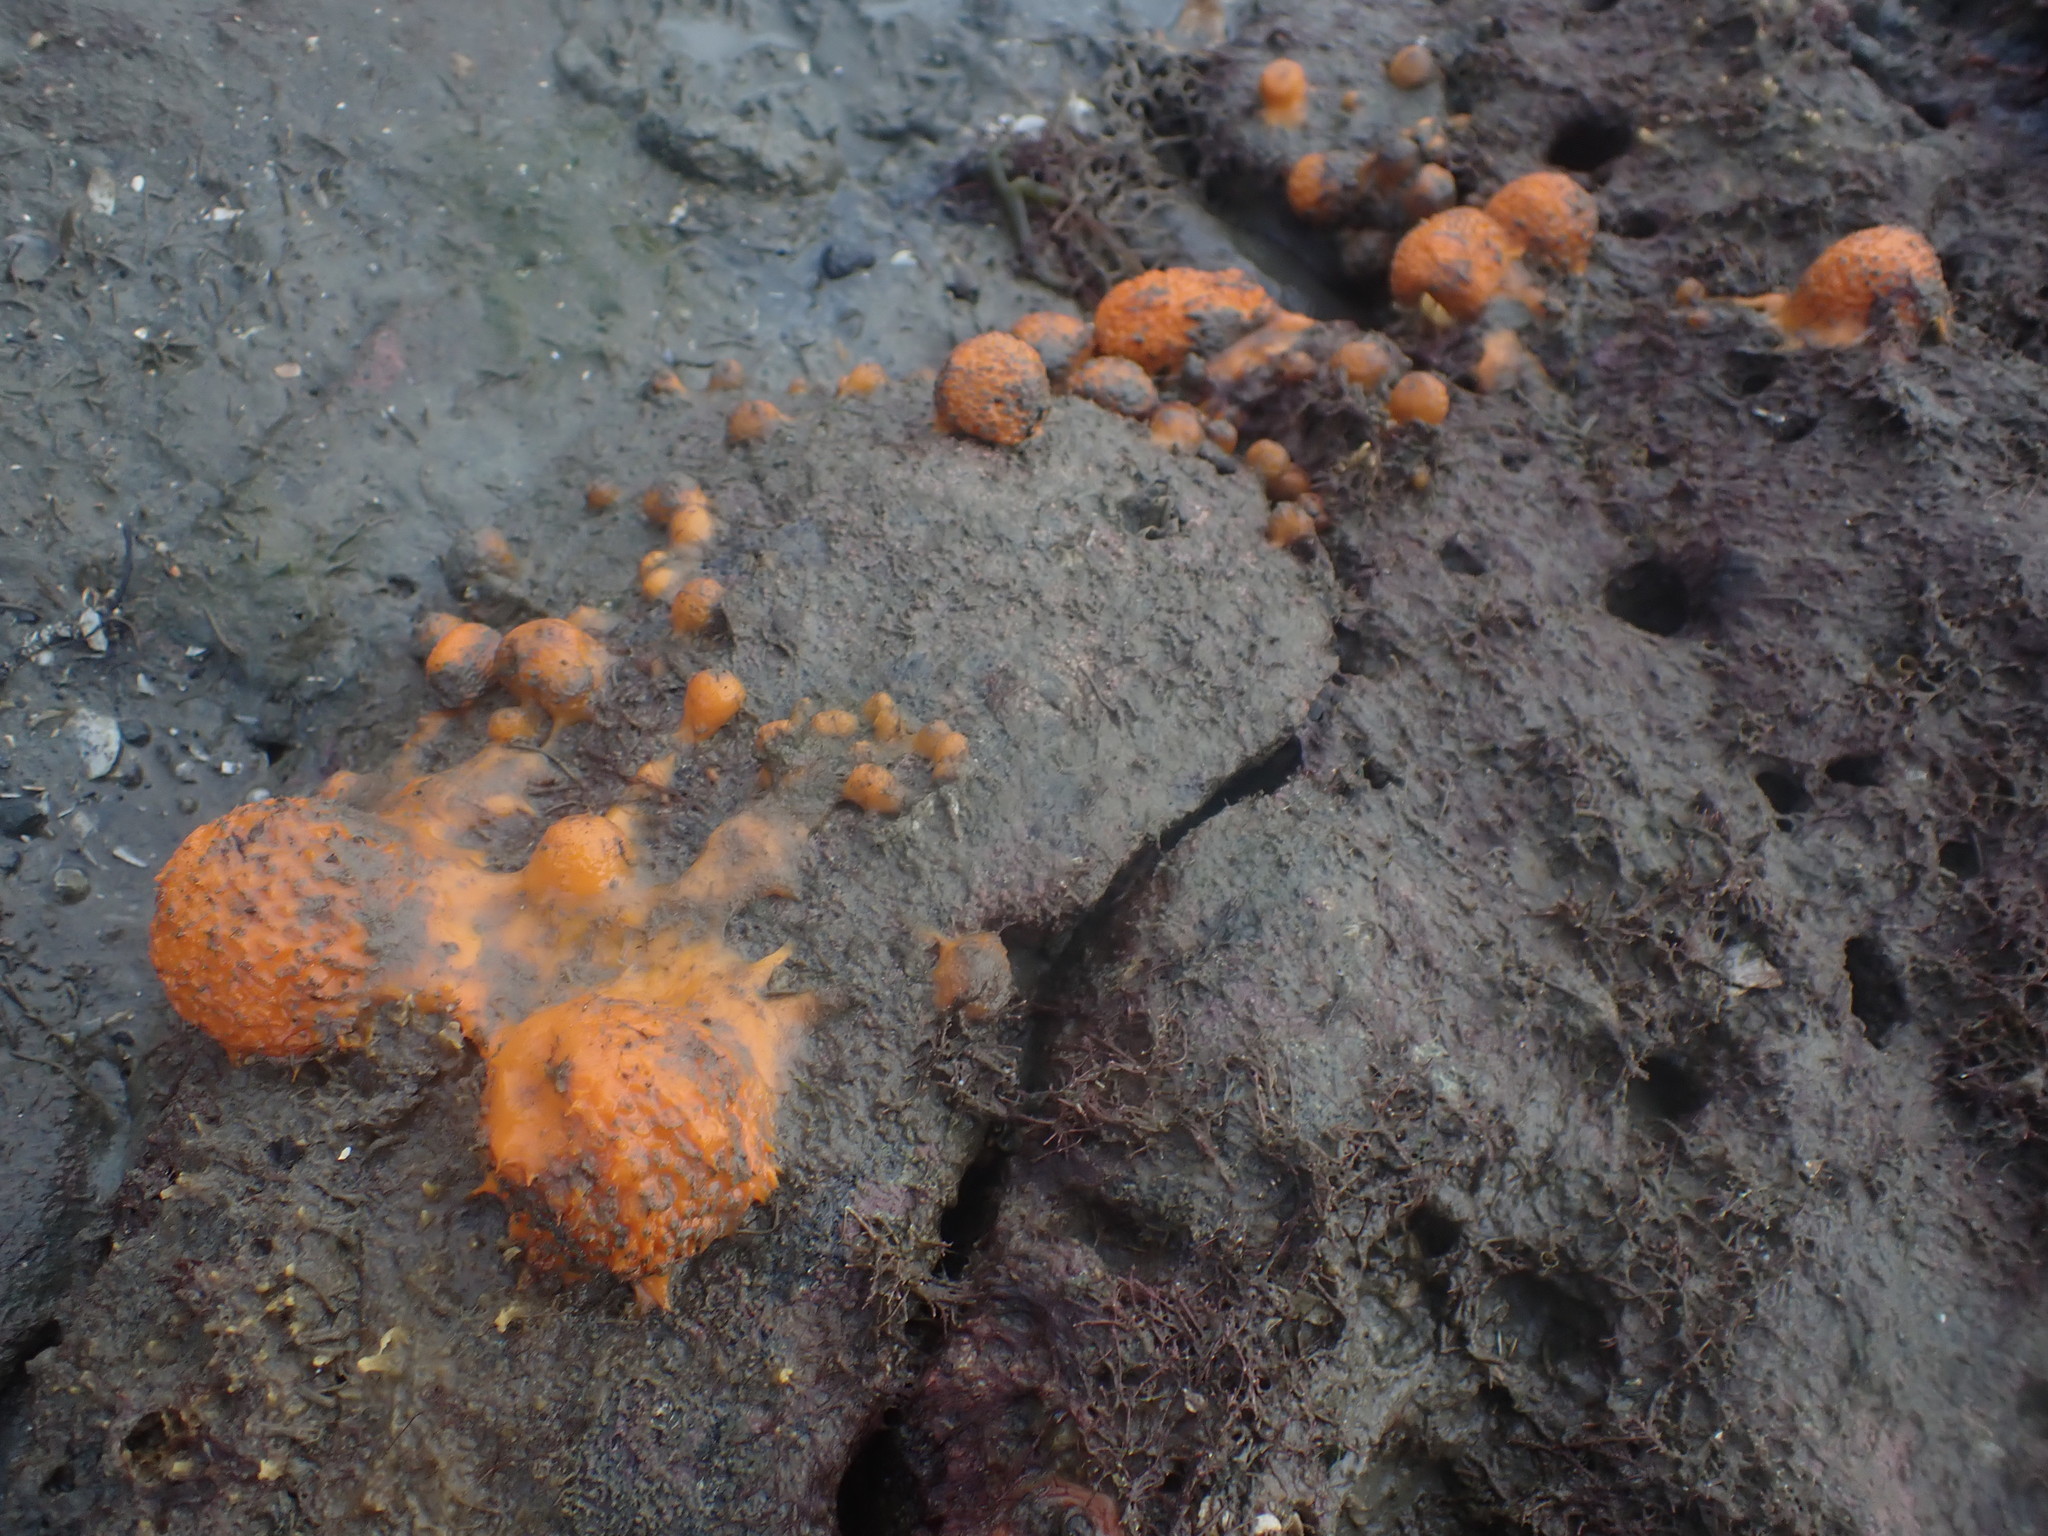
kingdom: Animalia
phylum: Porifera
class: Demospongiae
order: Tethyida
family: Tethyidae
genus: Tethya
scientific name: Tethya burtoni
